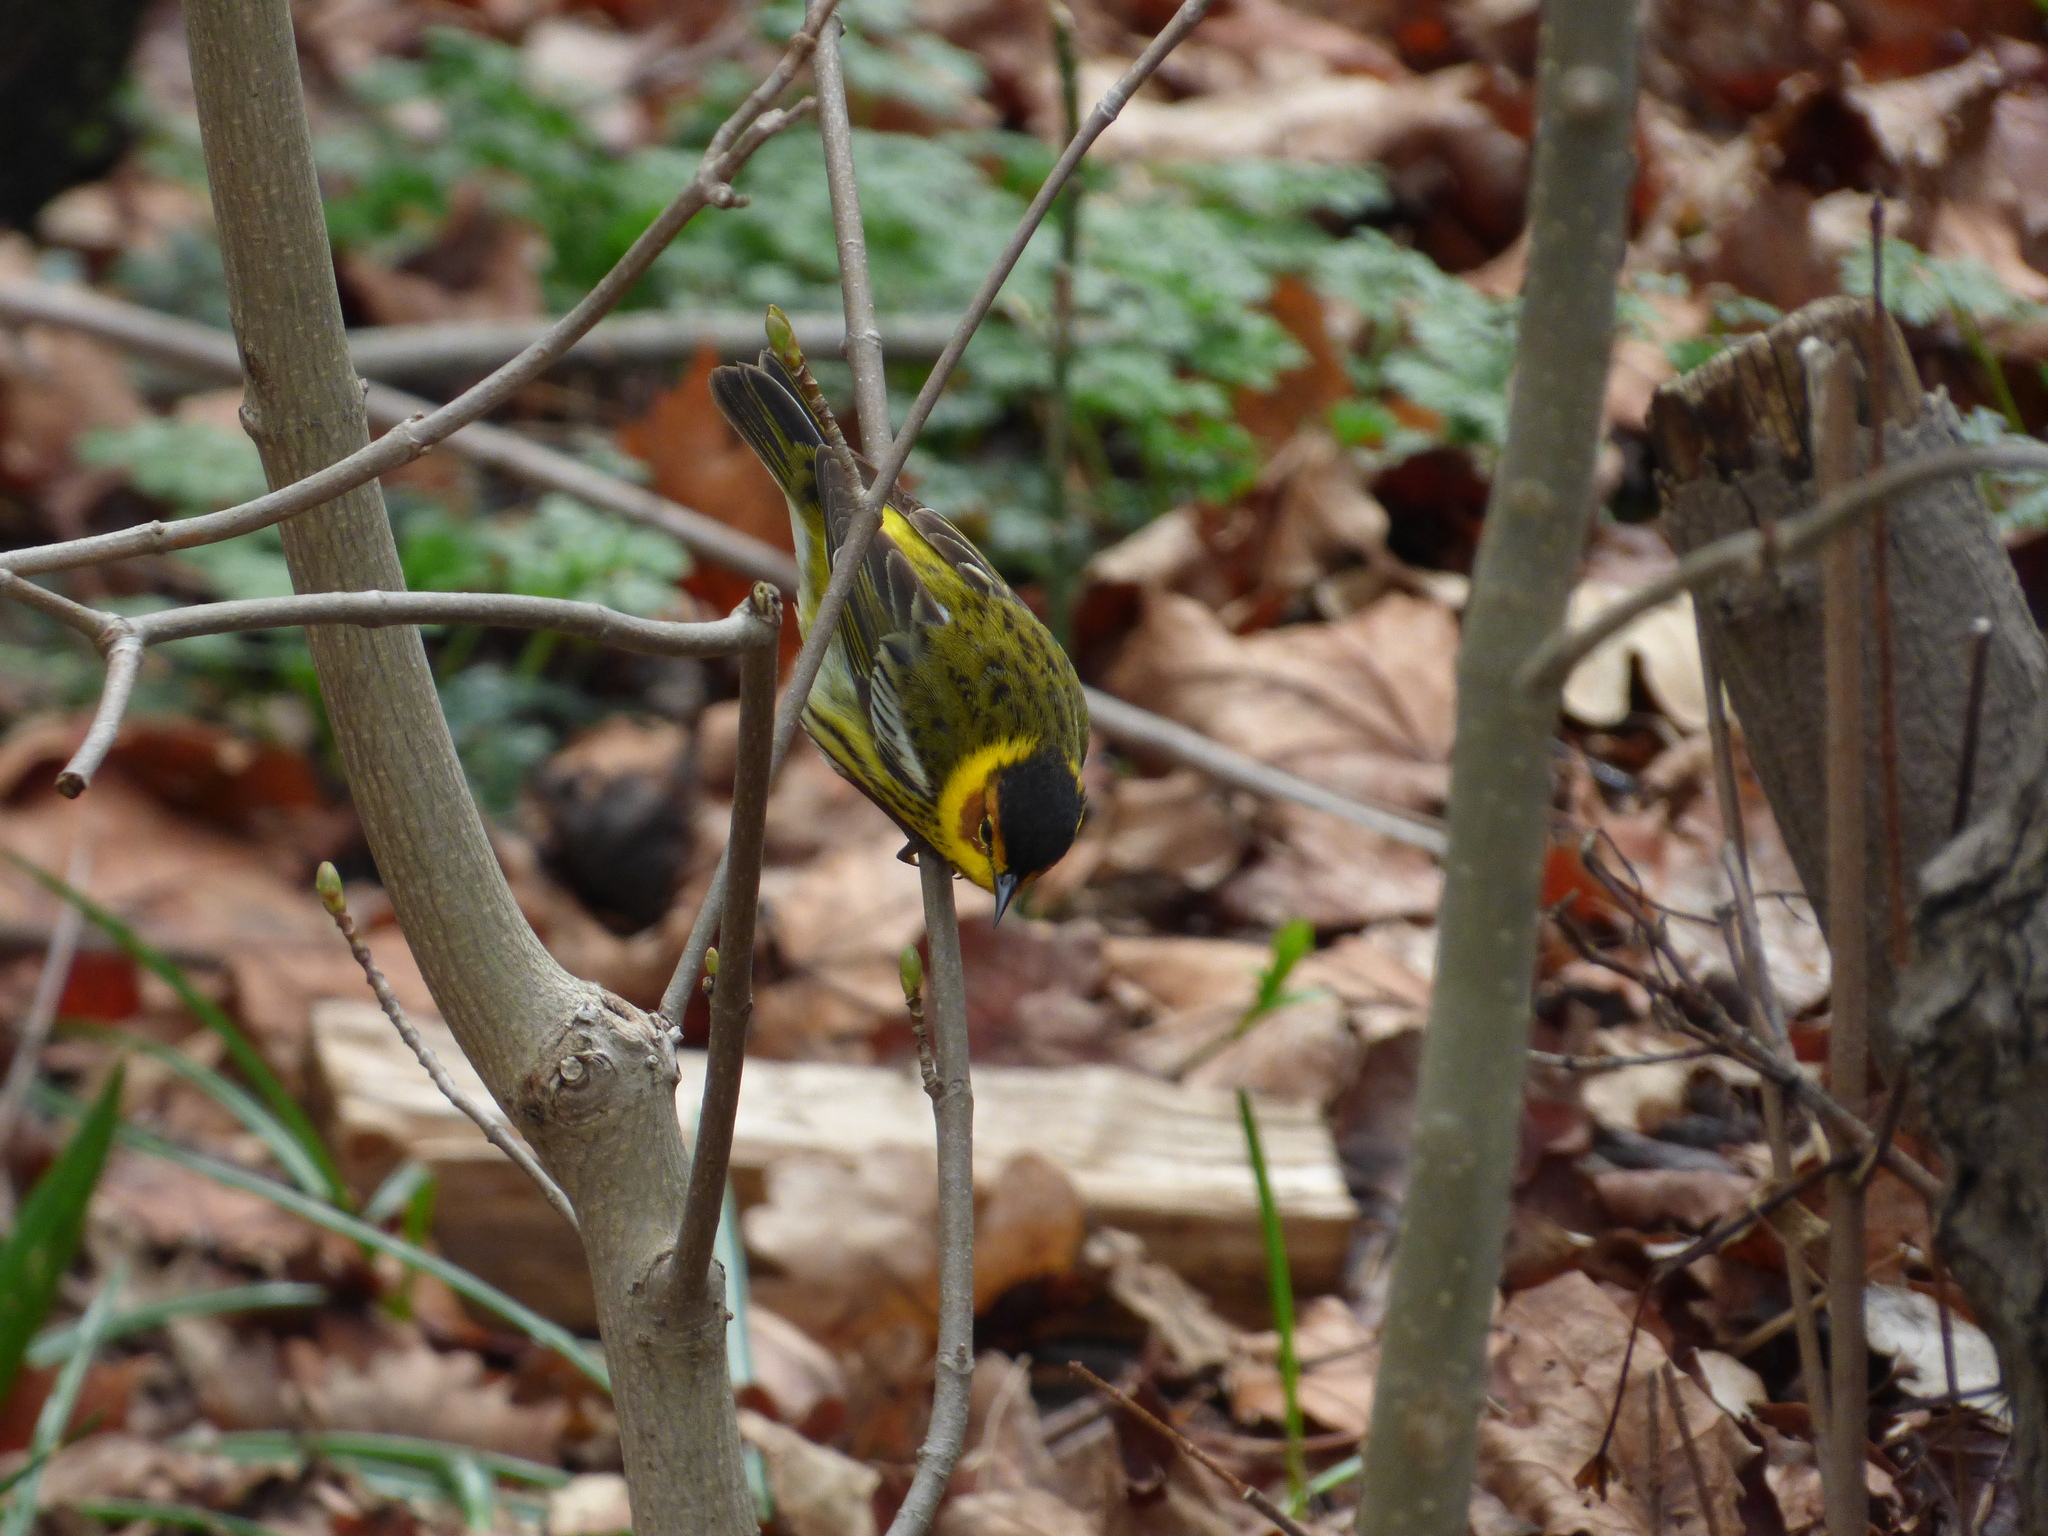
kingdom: Animalia
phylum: Chordata
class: Aves
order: Passeriformes
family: Parulidae
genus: Setophaga
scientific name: Setophaga tigrina
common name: Cape may warbler
